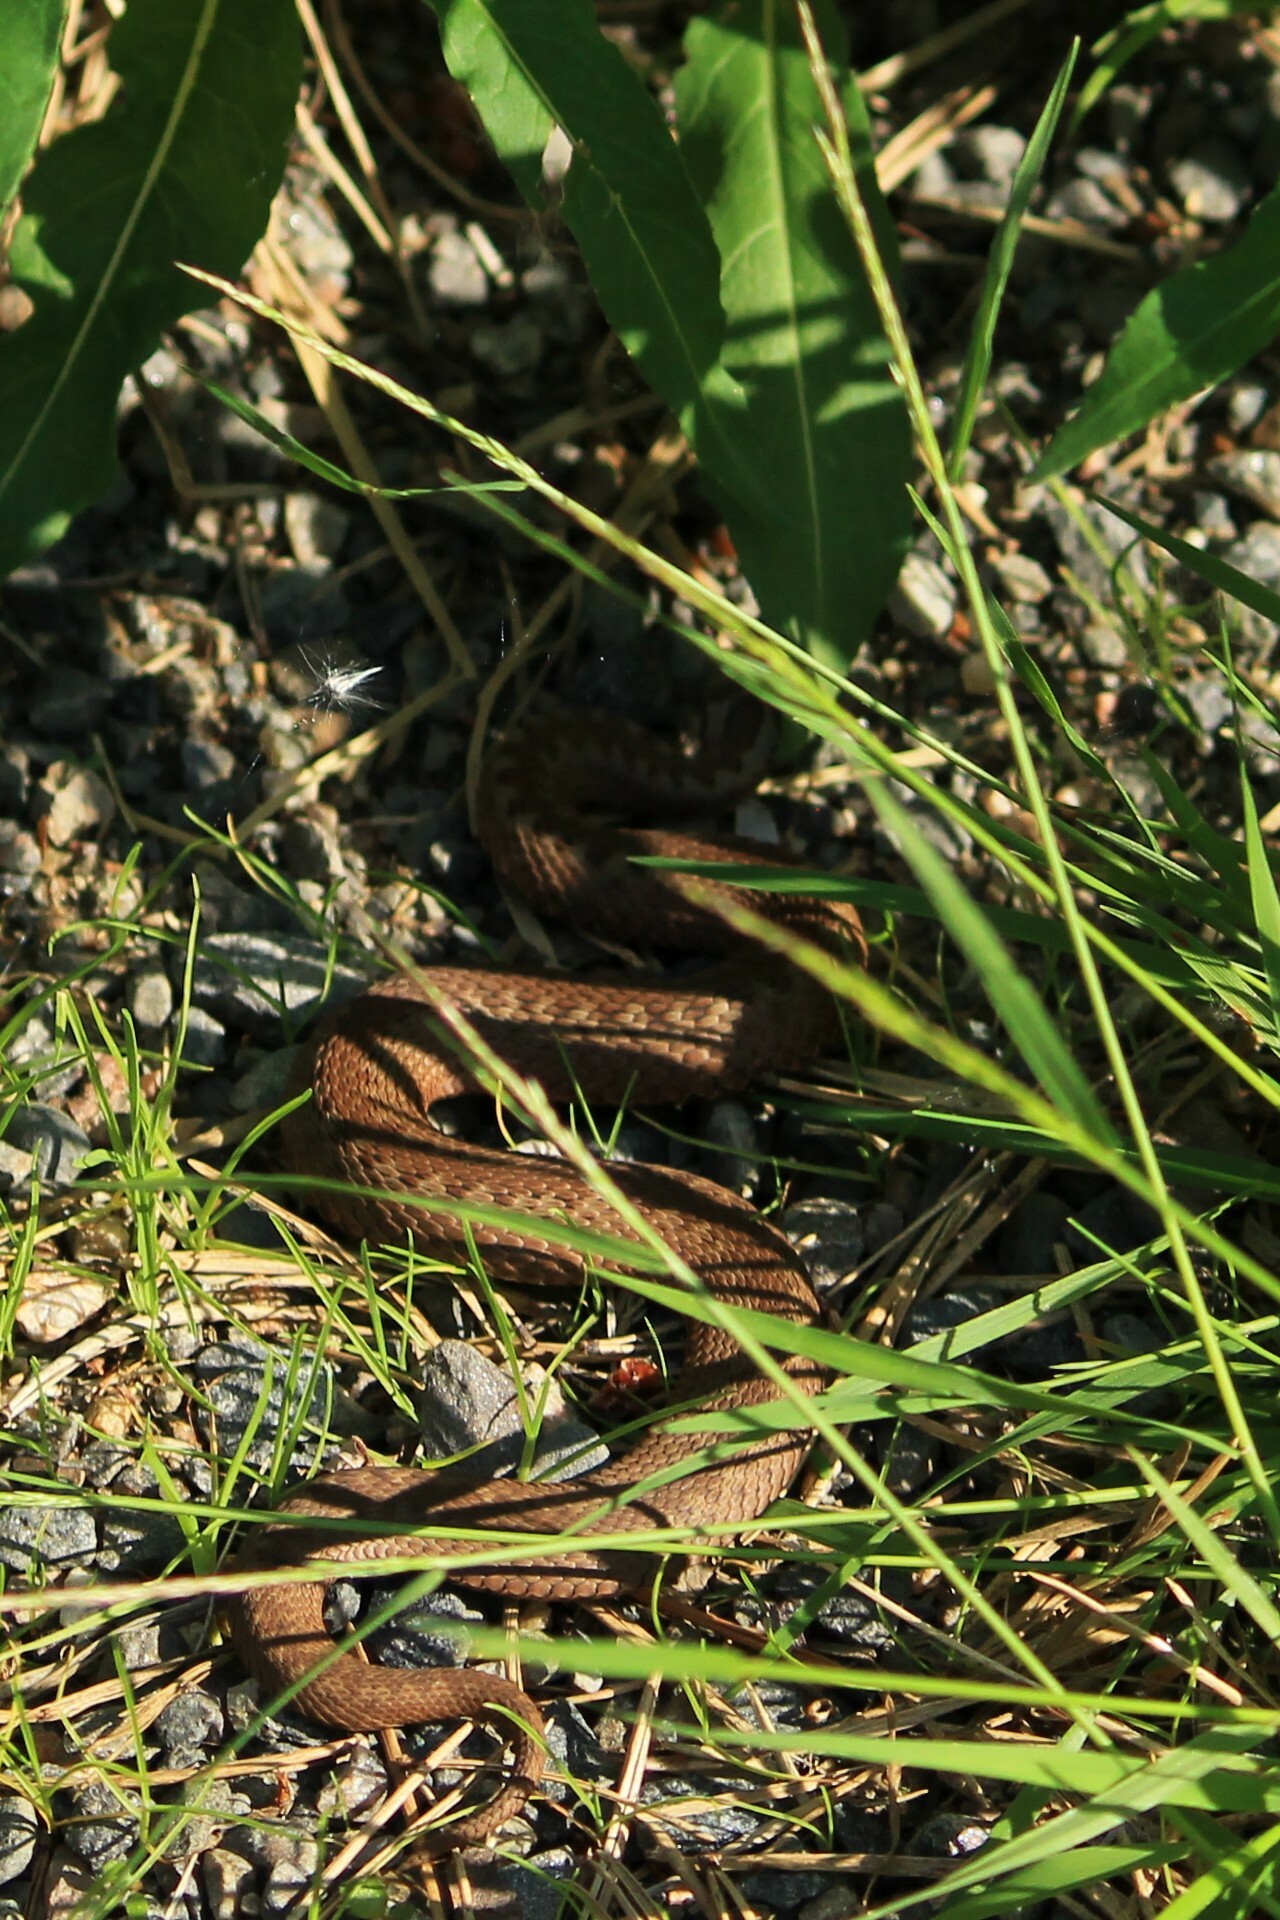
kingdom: Animalia
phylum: Chordata
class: Squamata
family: Viperidae
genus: Vipera
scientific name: Vipera berus
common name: Adder
